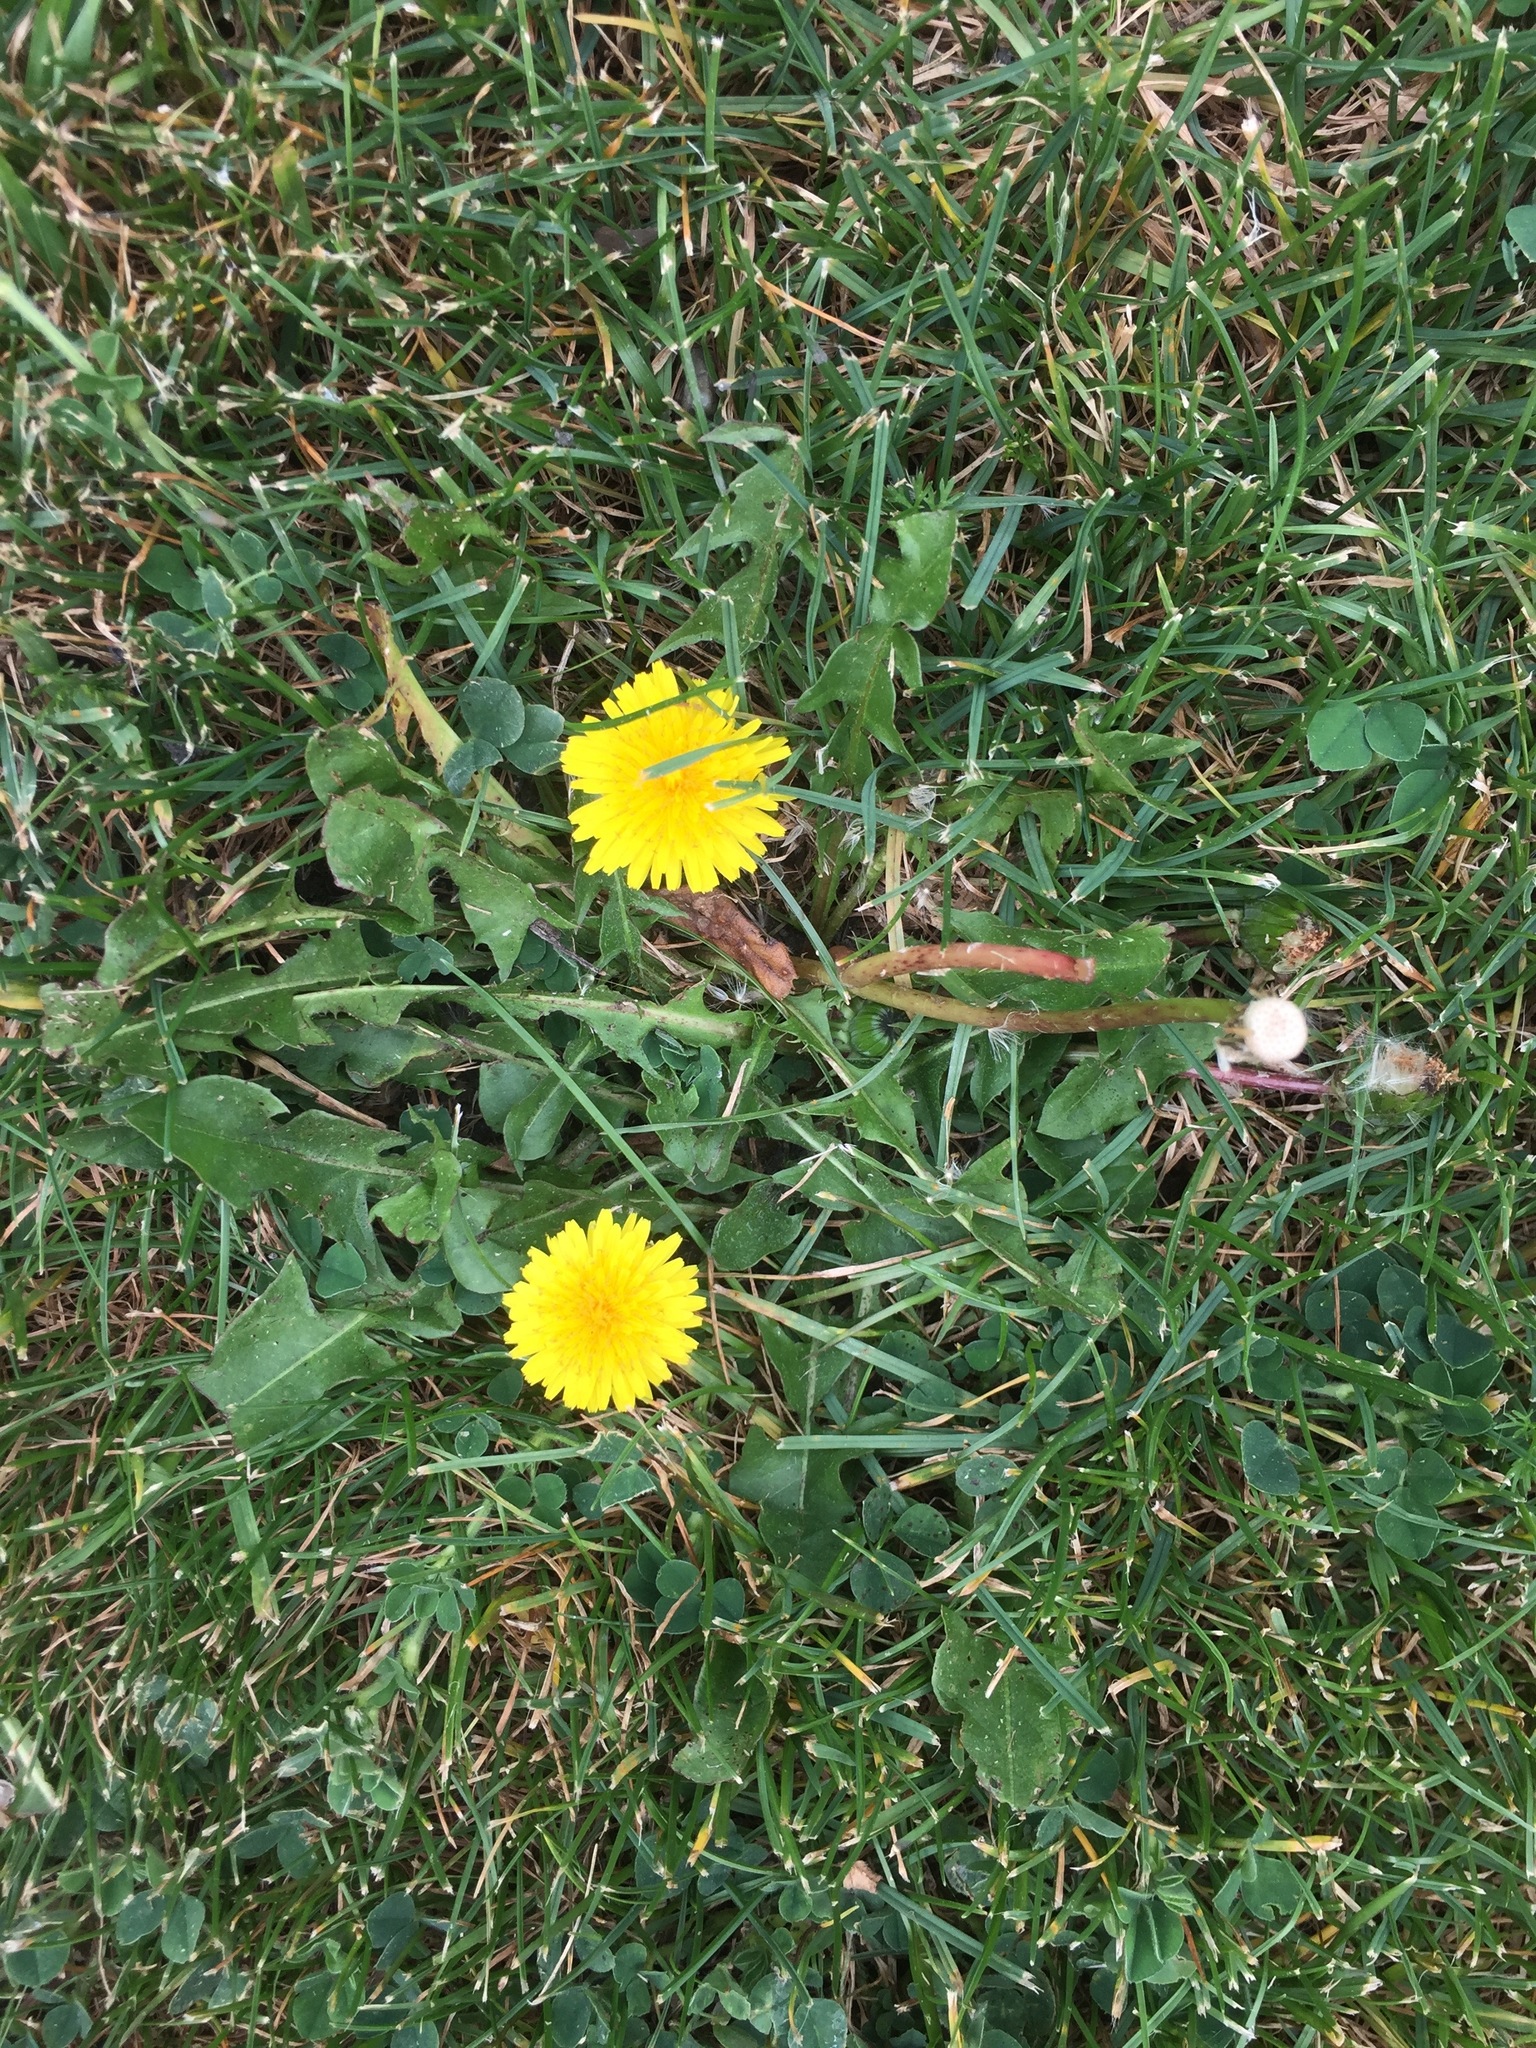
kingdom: Plantae
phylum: Tracheophyta
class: Magnoliopsida
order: Asterales
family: Asteraceae
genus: Taraxacum
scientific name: Taraxacum officinale
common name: Common dandelion
